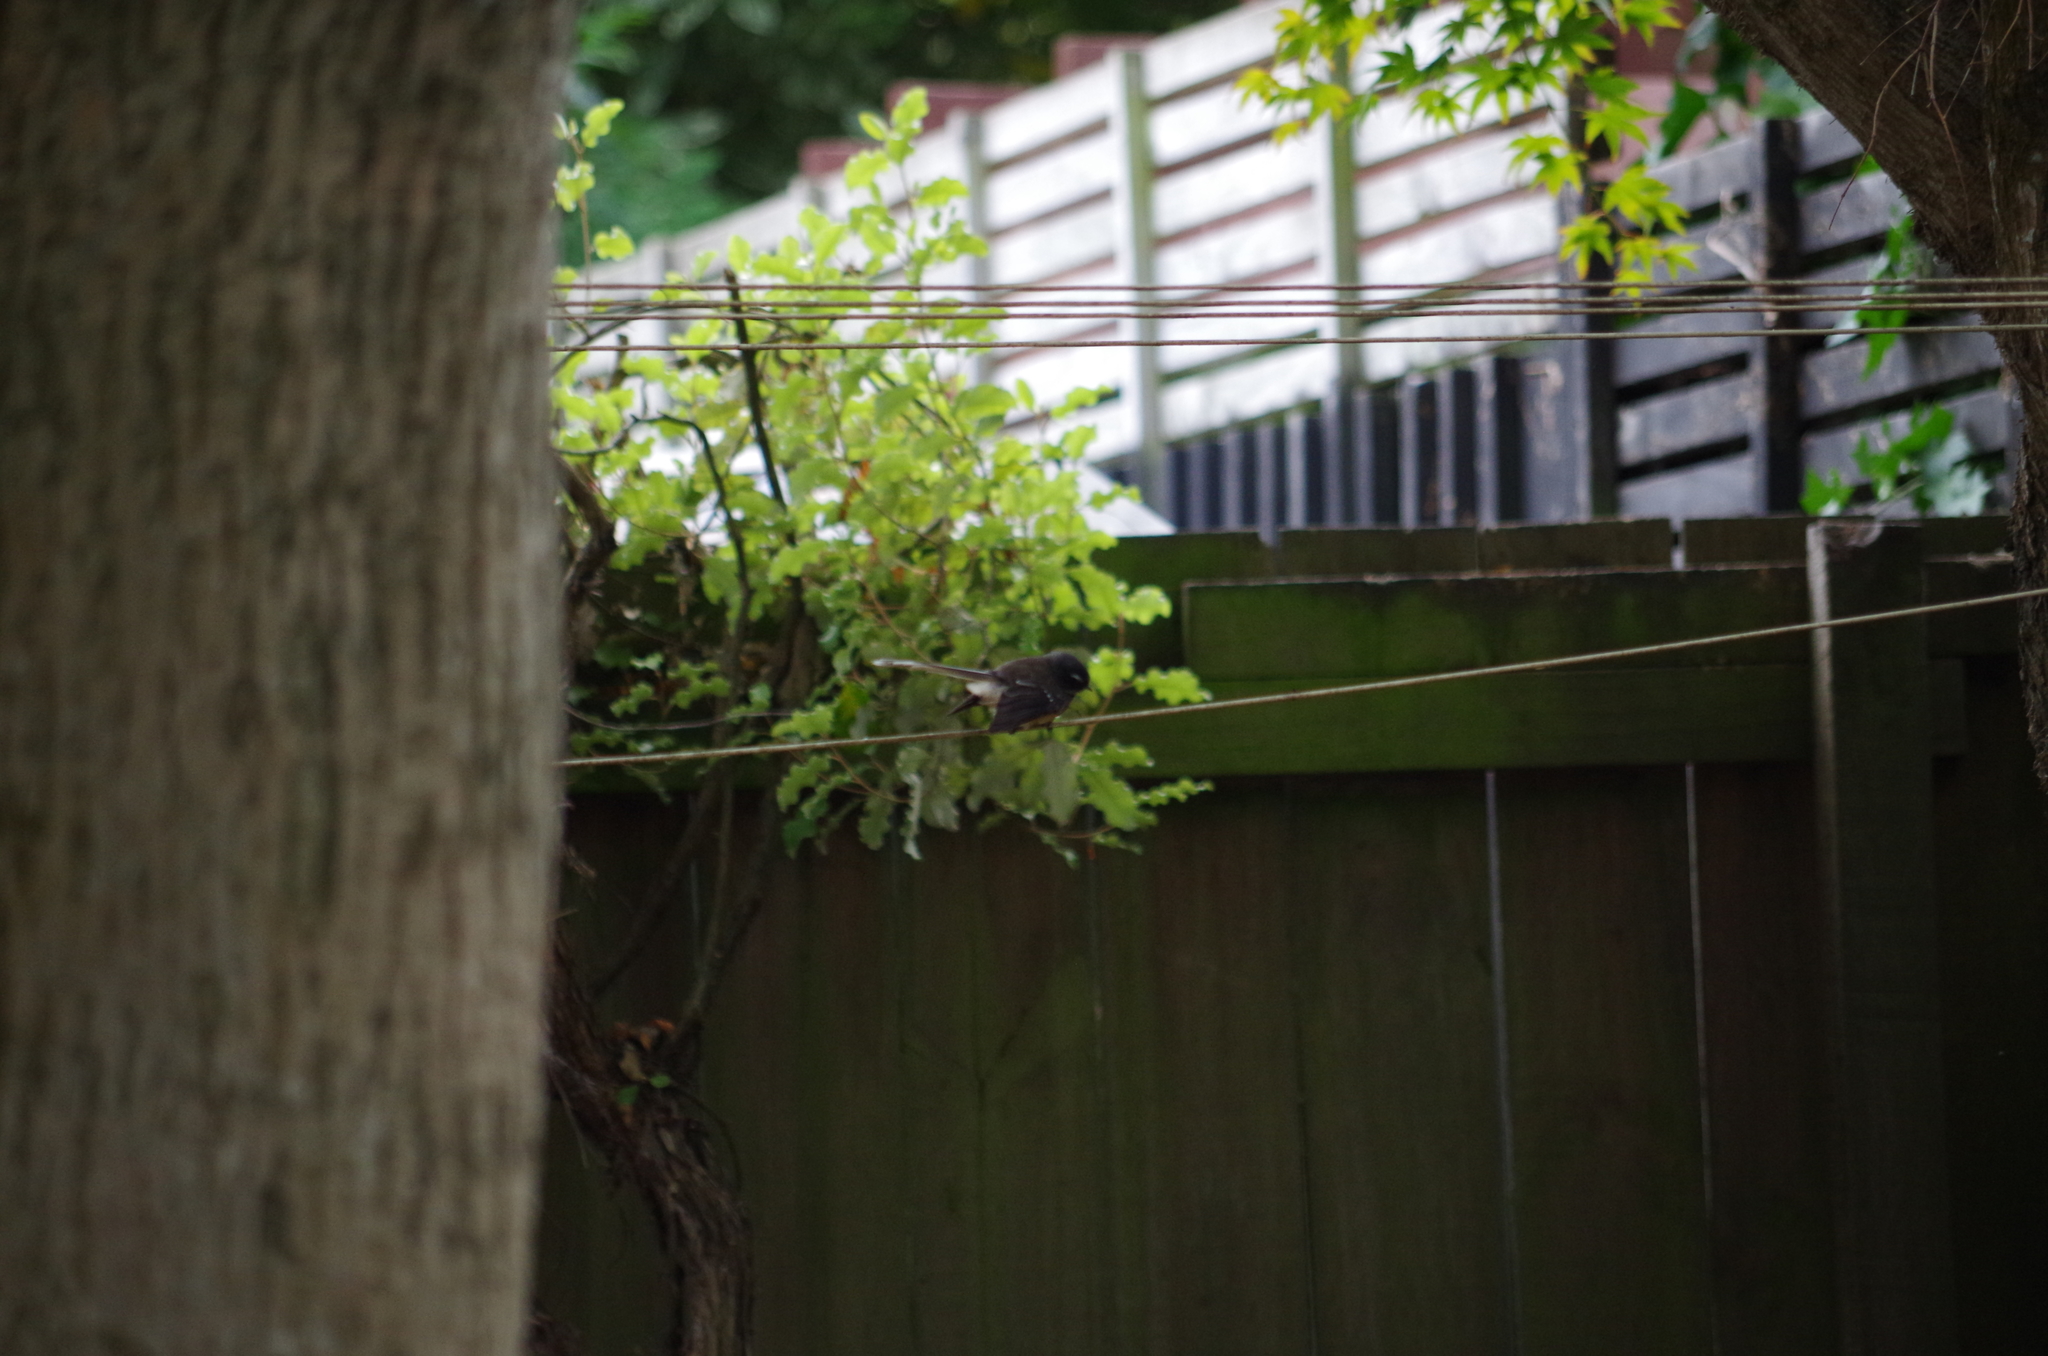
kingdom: Animalia
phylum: Chordata
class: Aves
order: Passeriformes
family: Rhipiduridae
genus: Rhipidura
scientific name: Rhipidura fuliginosa
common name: New zealand fantail
